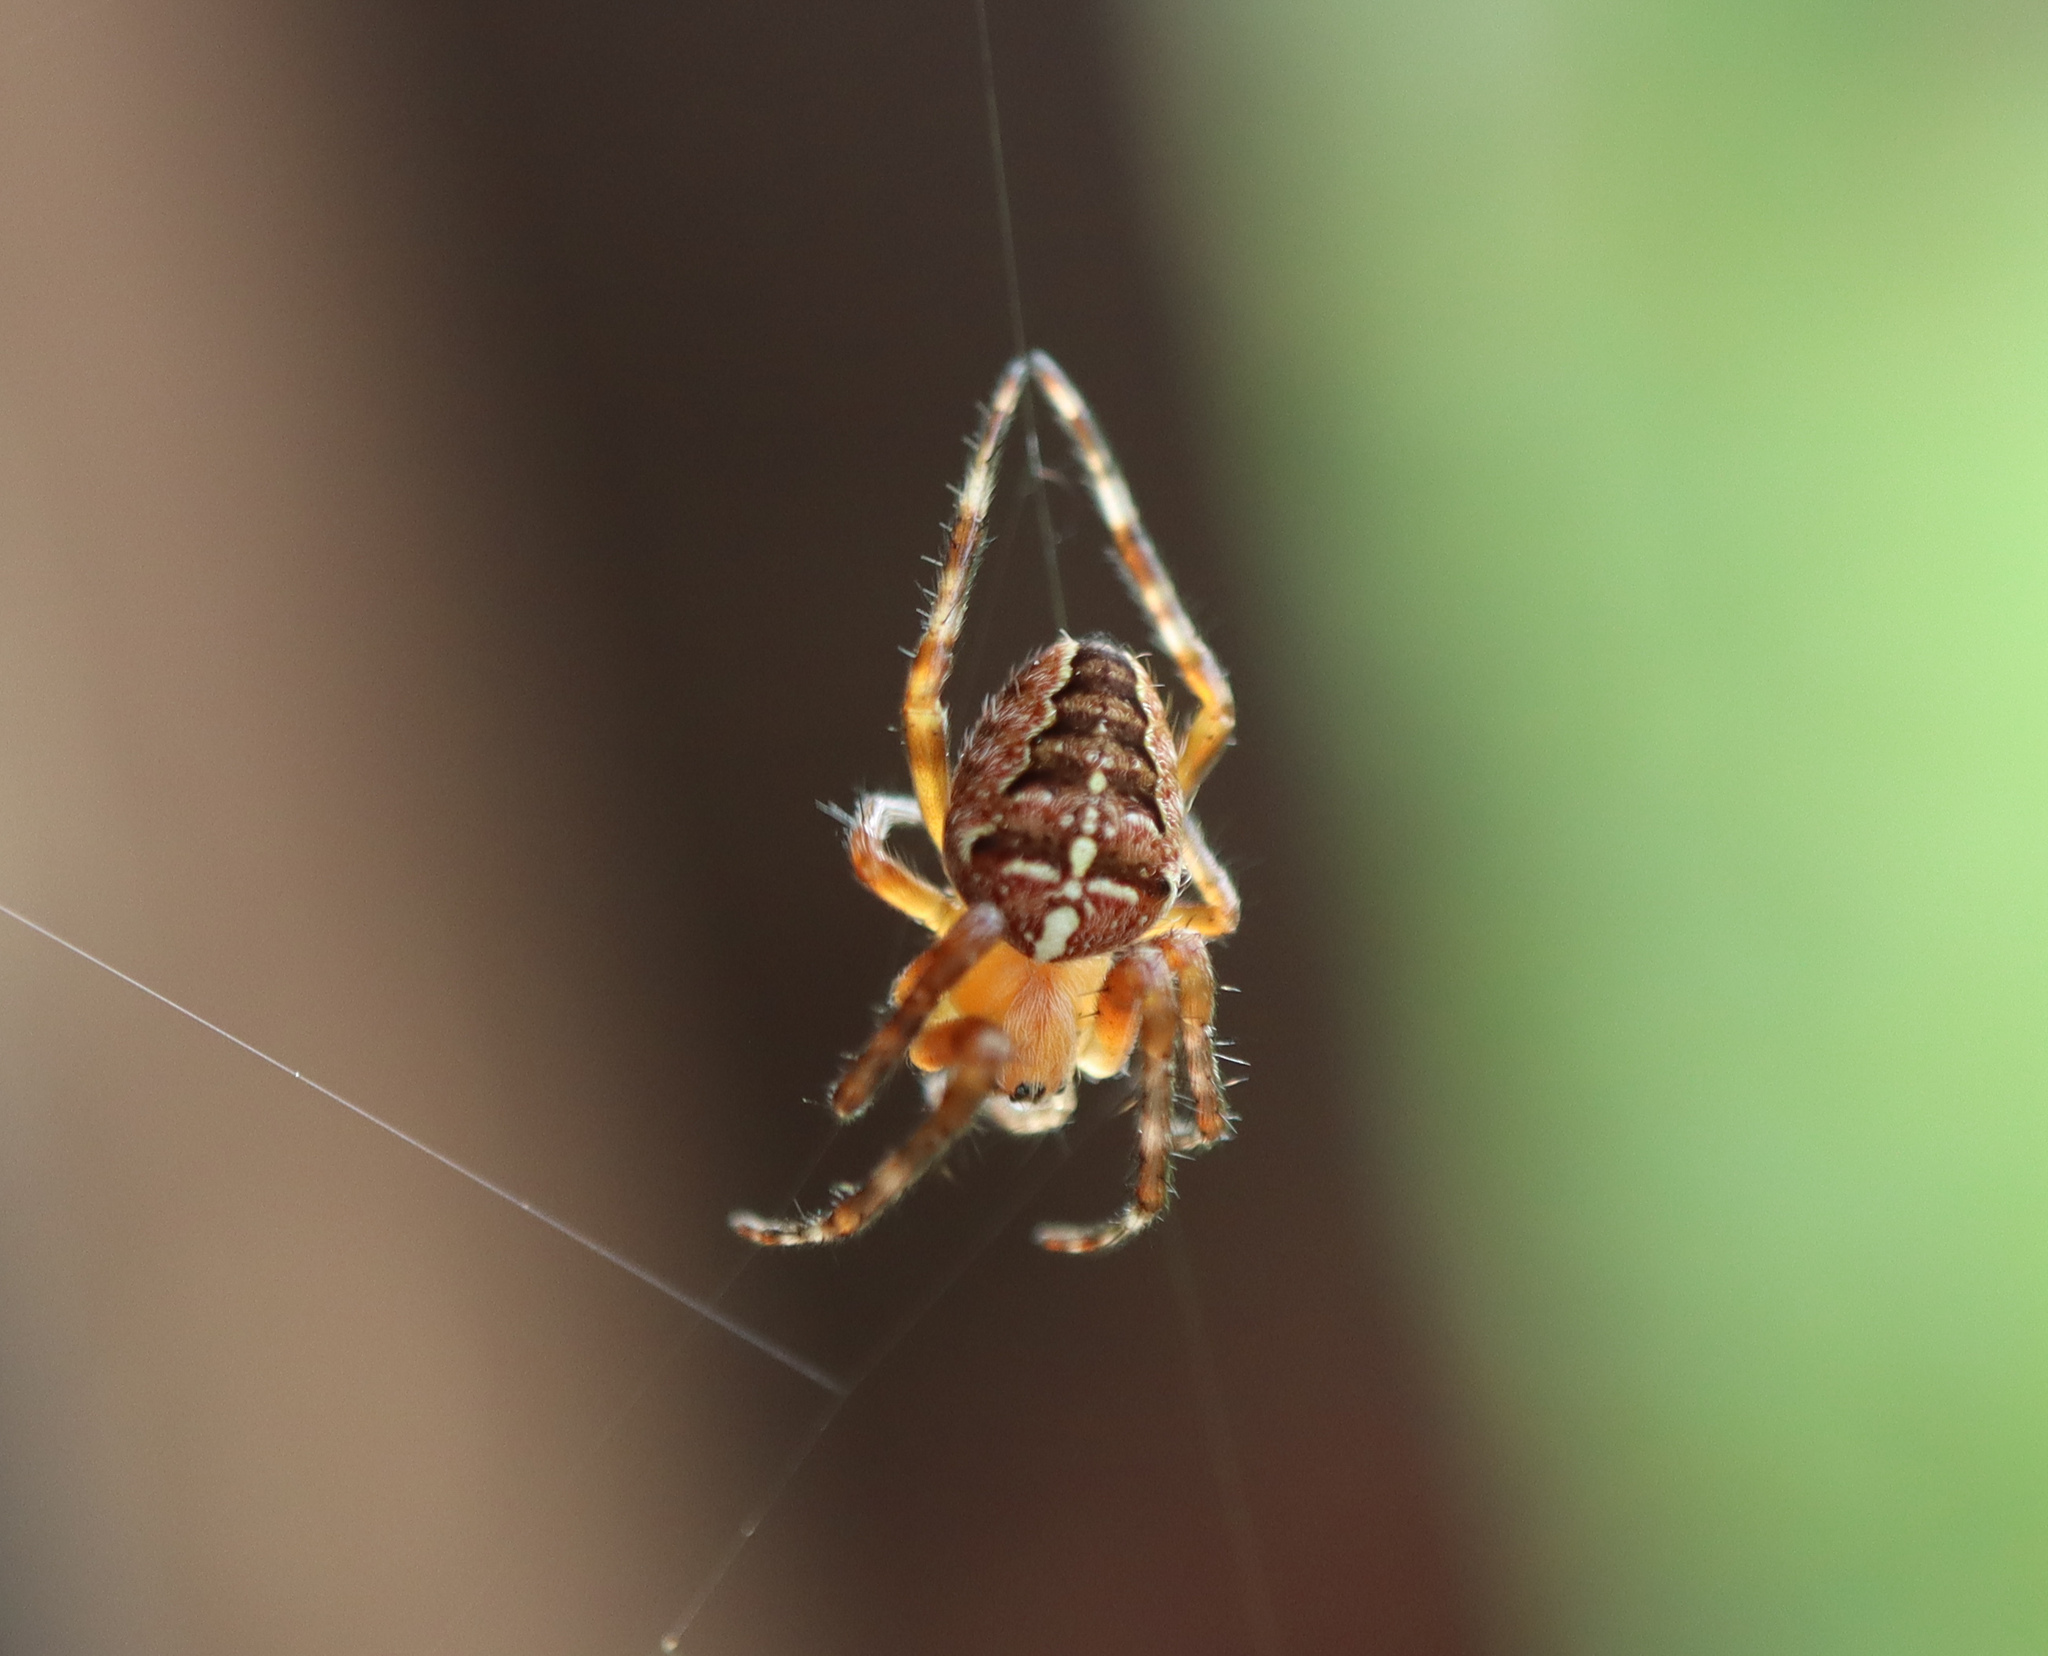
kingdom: Animalia
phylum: Arthropoda
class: Arachnida
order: Araneae
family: Araneidae
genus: Araneus
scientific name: Araneus diadematus
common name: Cross orbweaver
